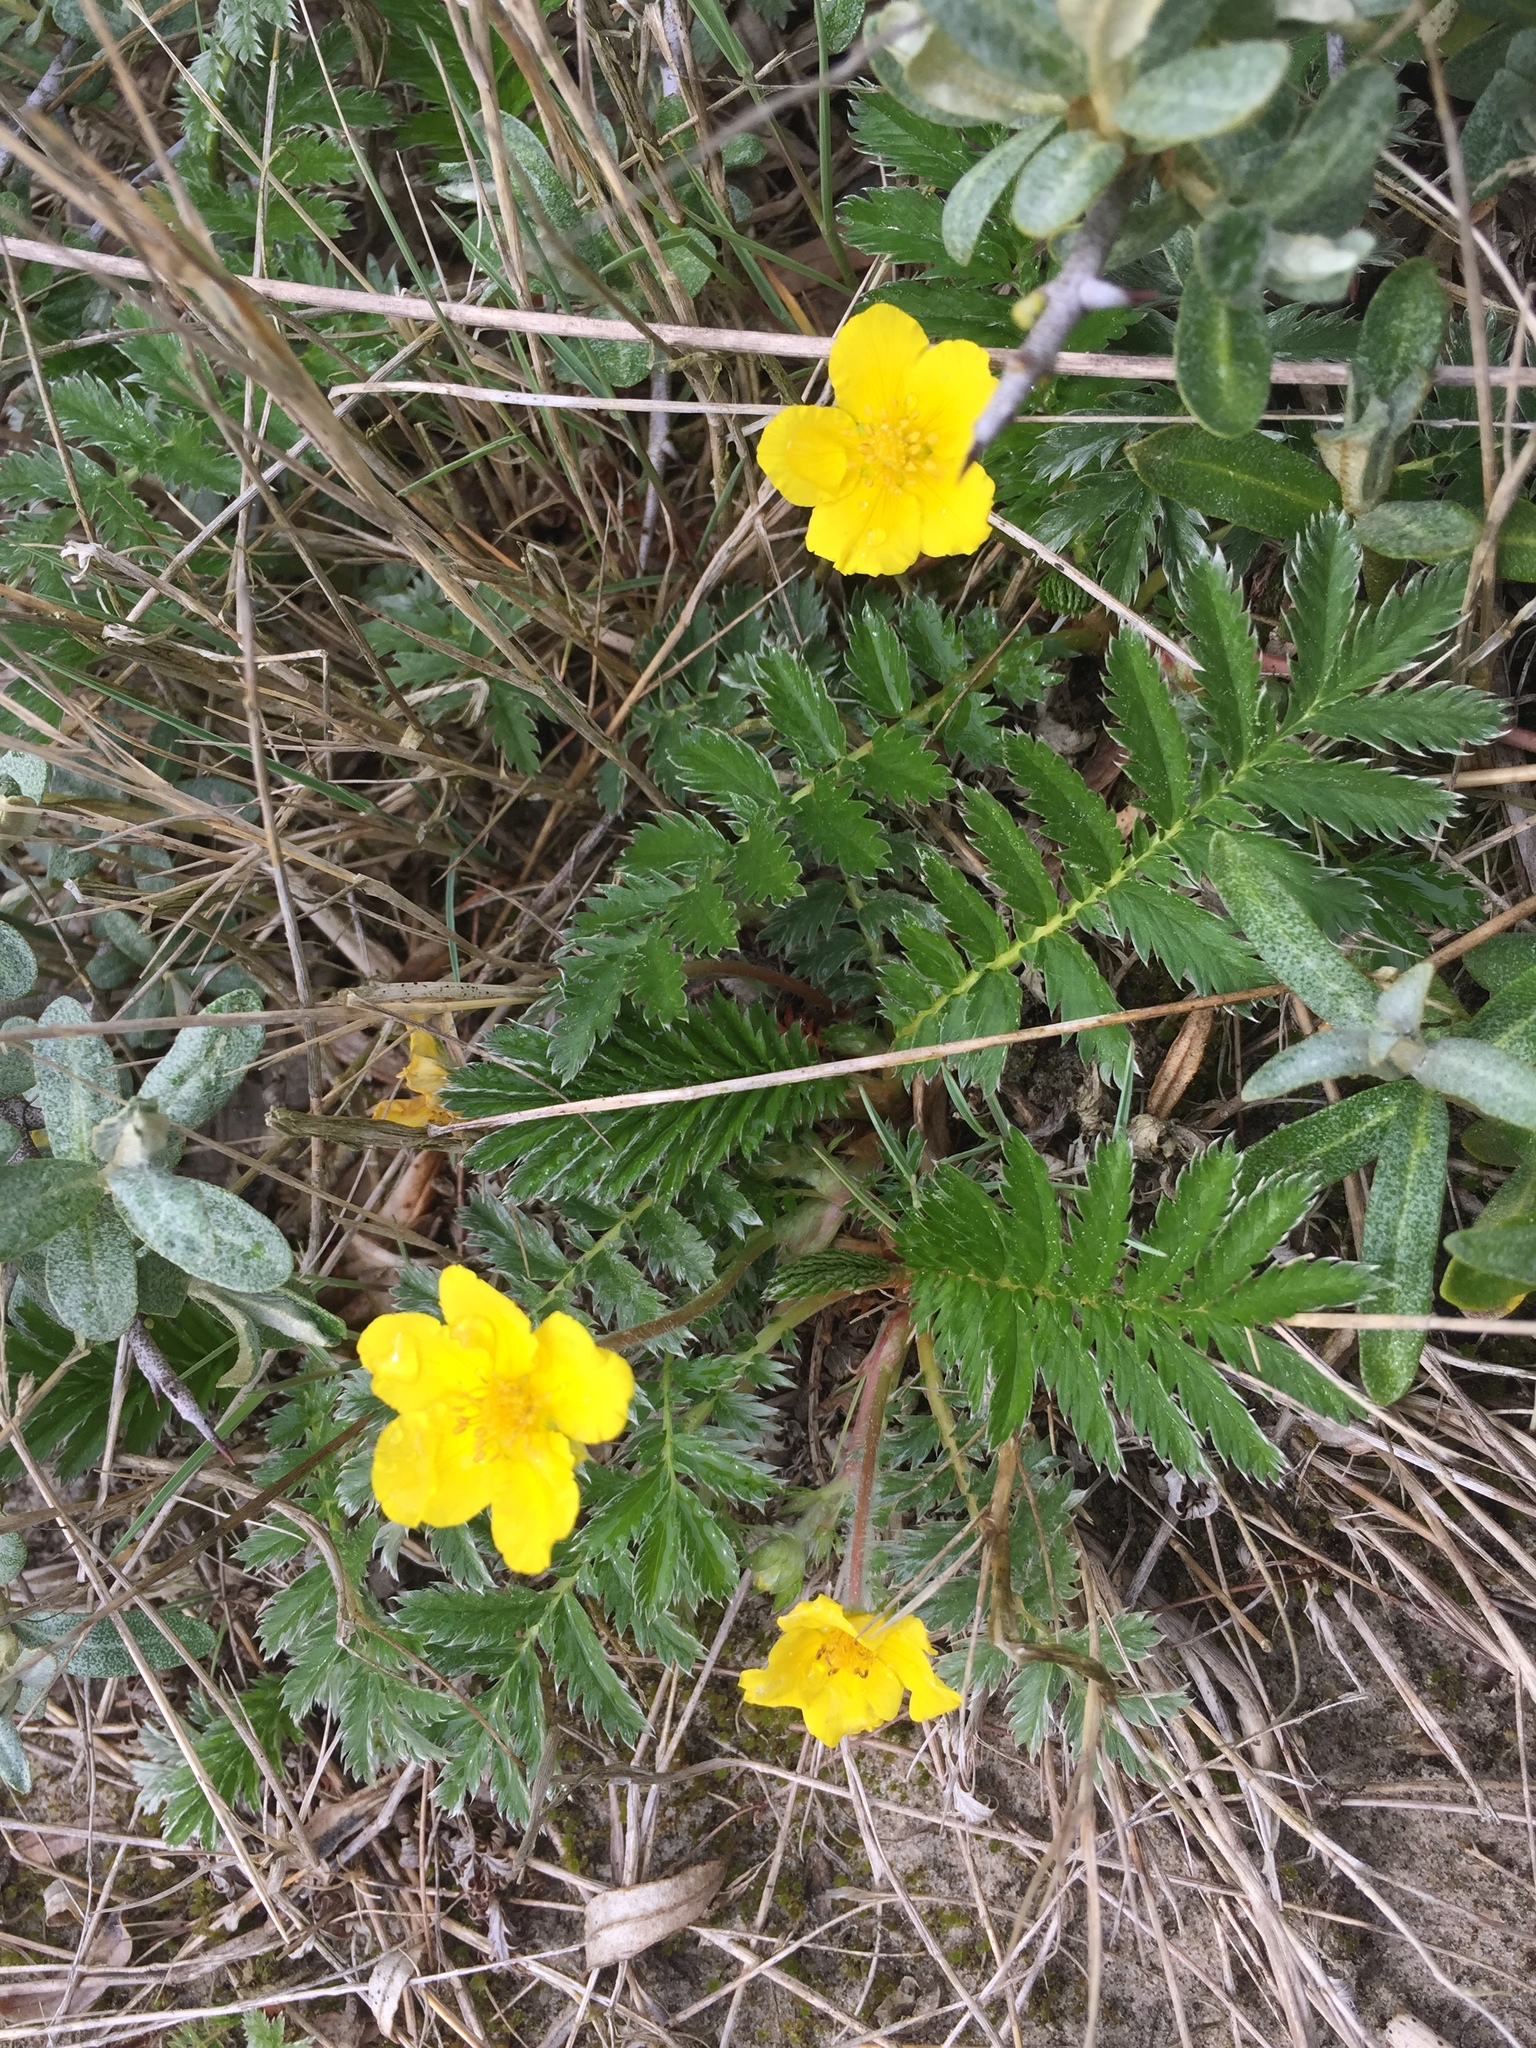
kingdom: Plantae
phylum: Tracheophyta
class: Magnoliopsida
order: Rosales
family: Rosaceae
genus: Argentina
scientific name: Argentina anserina
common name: Common silverweed
